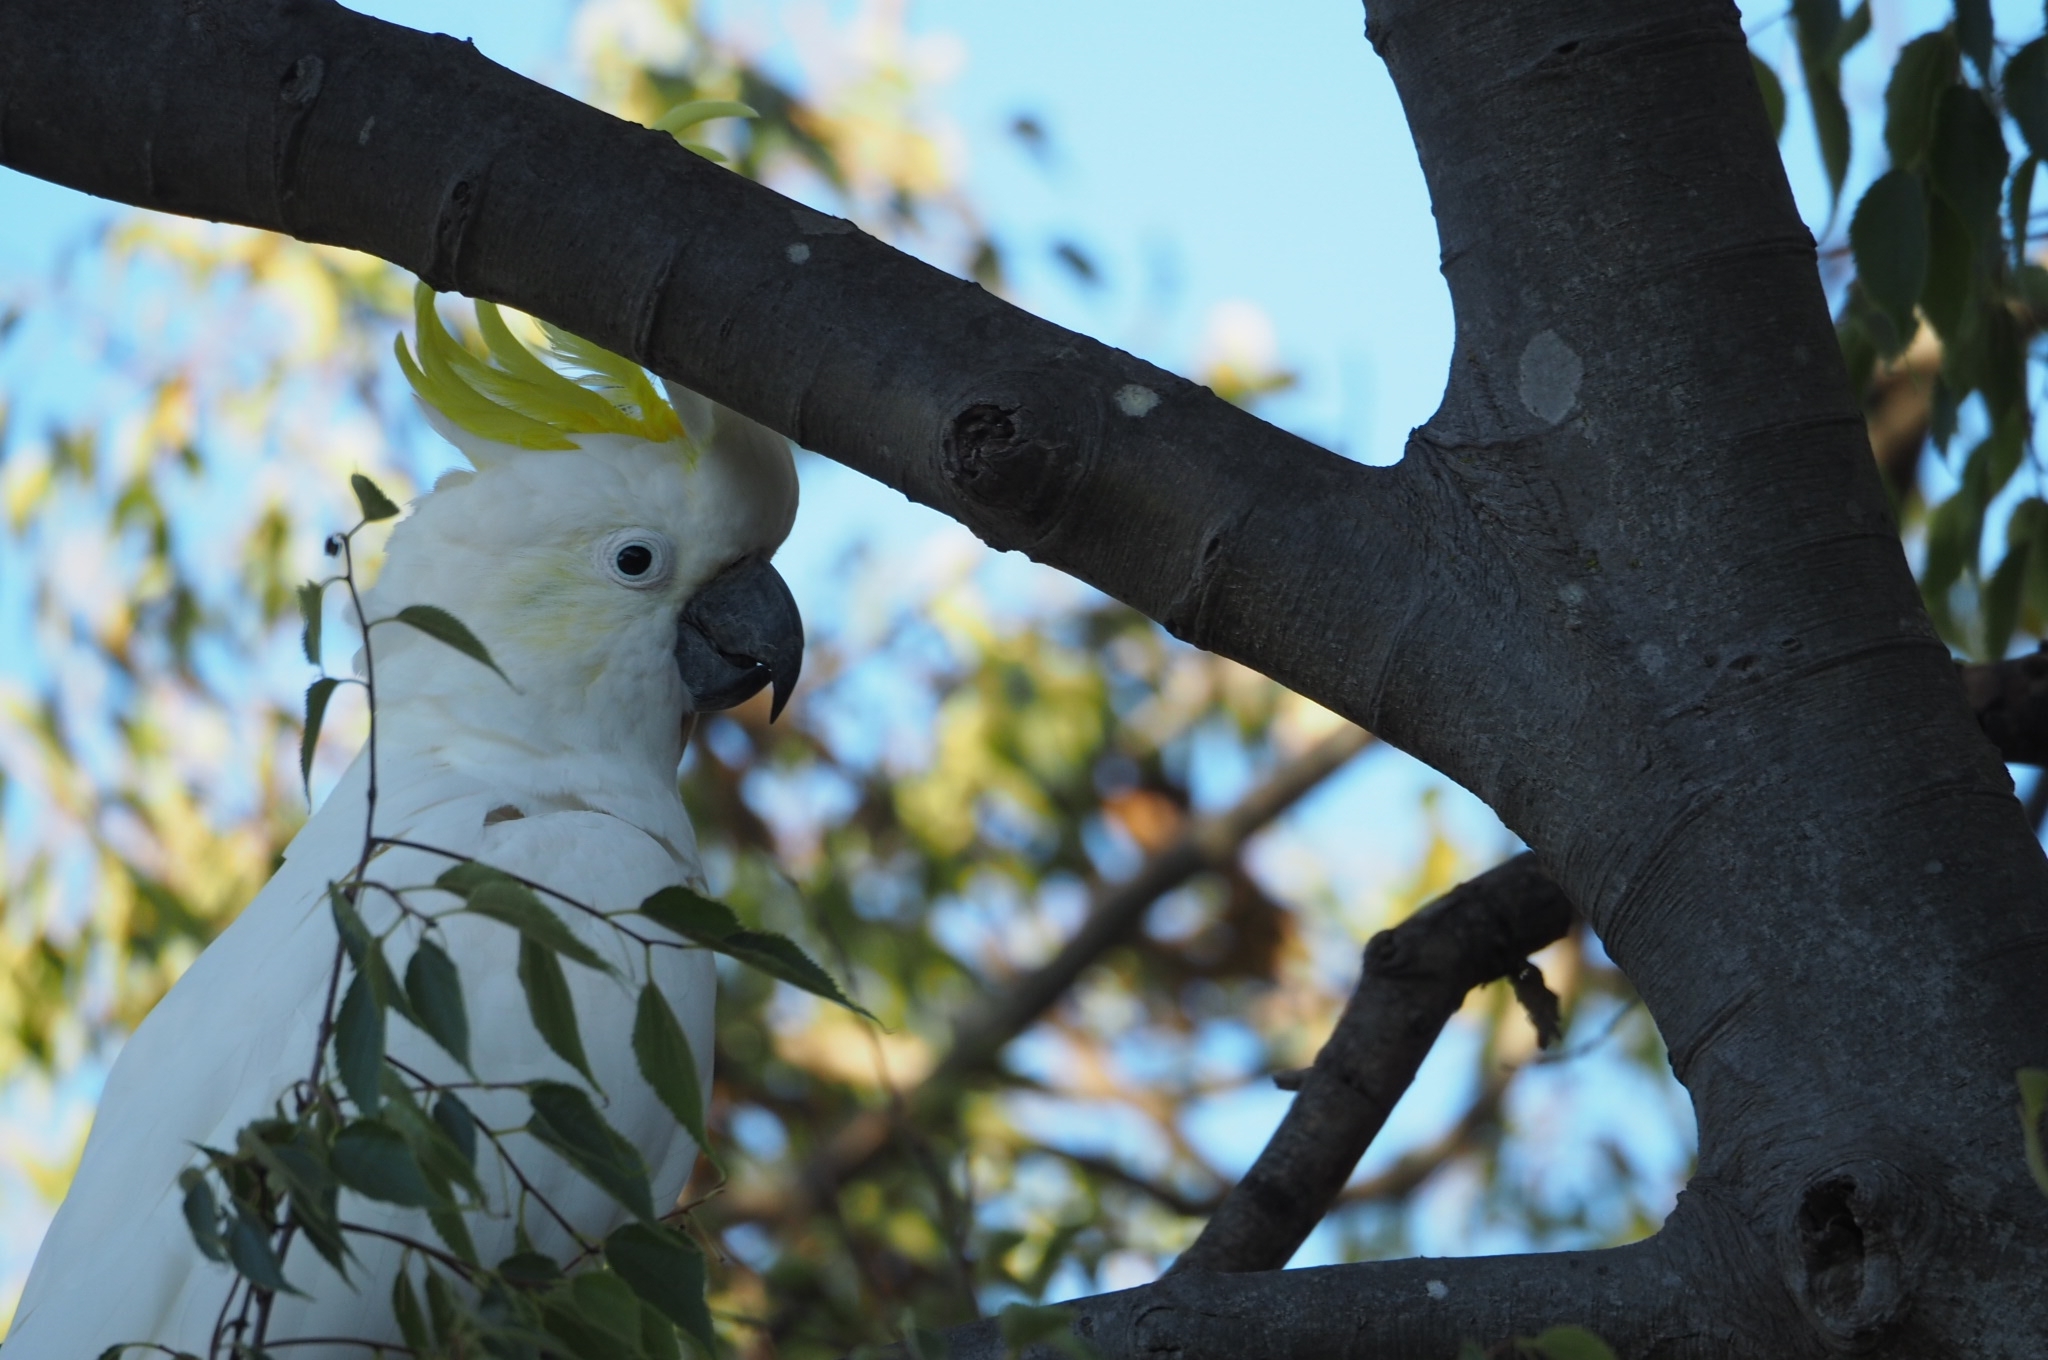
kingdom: Animalia
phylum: Chordata
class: Aves
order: Psittaciformes
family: Psittacidae
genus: Cacatua
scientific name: Cacatua galerita
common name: Sulphur-crested cockatoo
